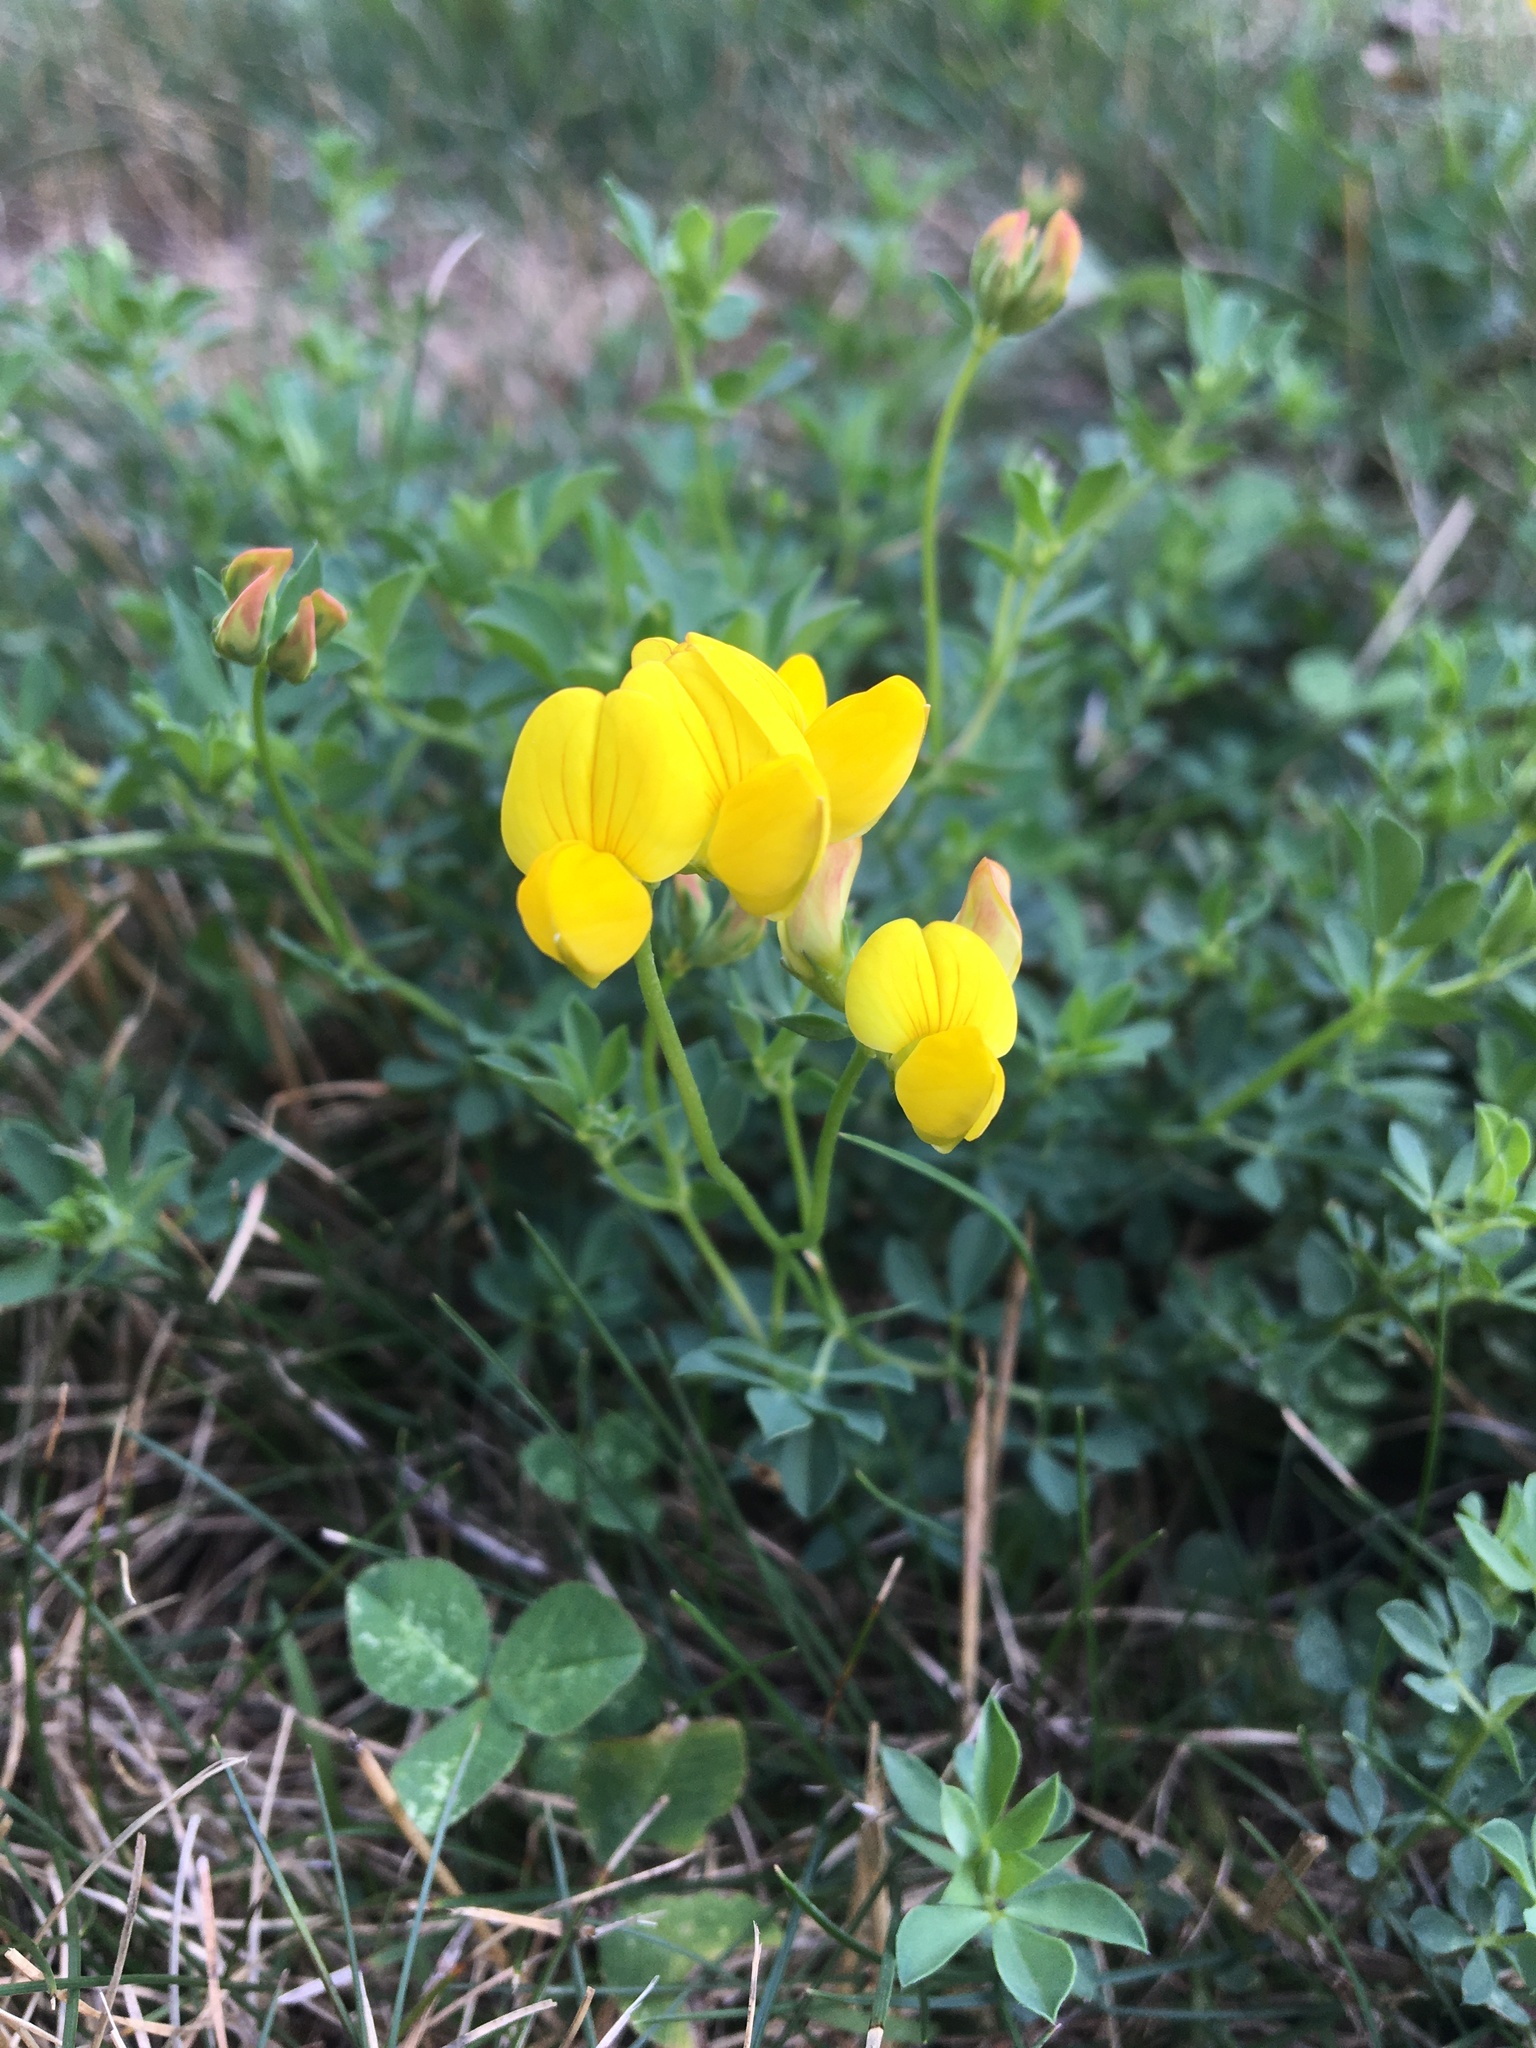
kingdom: Plantae
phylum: Tracheophyta
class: Magnoliopsida
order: Fabales
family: Fabaceae
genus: Lotus
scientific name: Lotus corniculatus
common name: Common bird's-foot-trefoil
